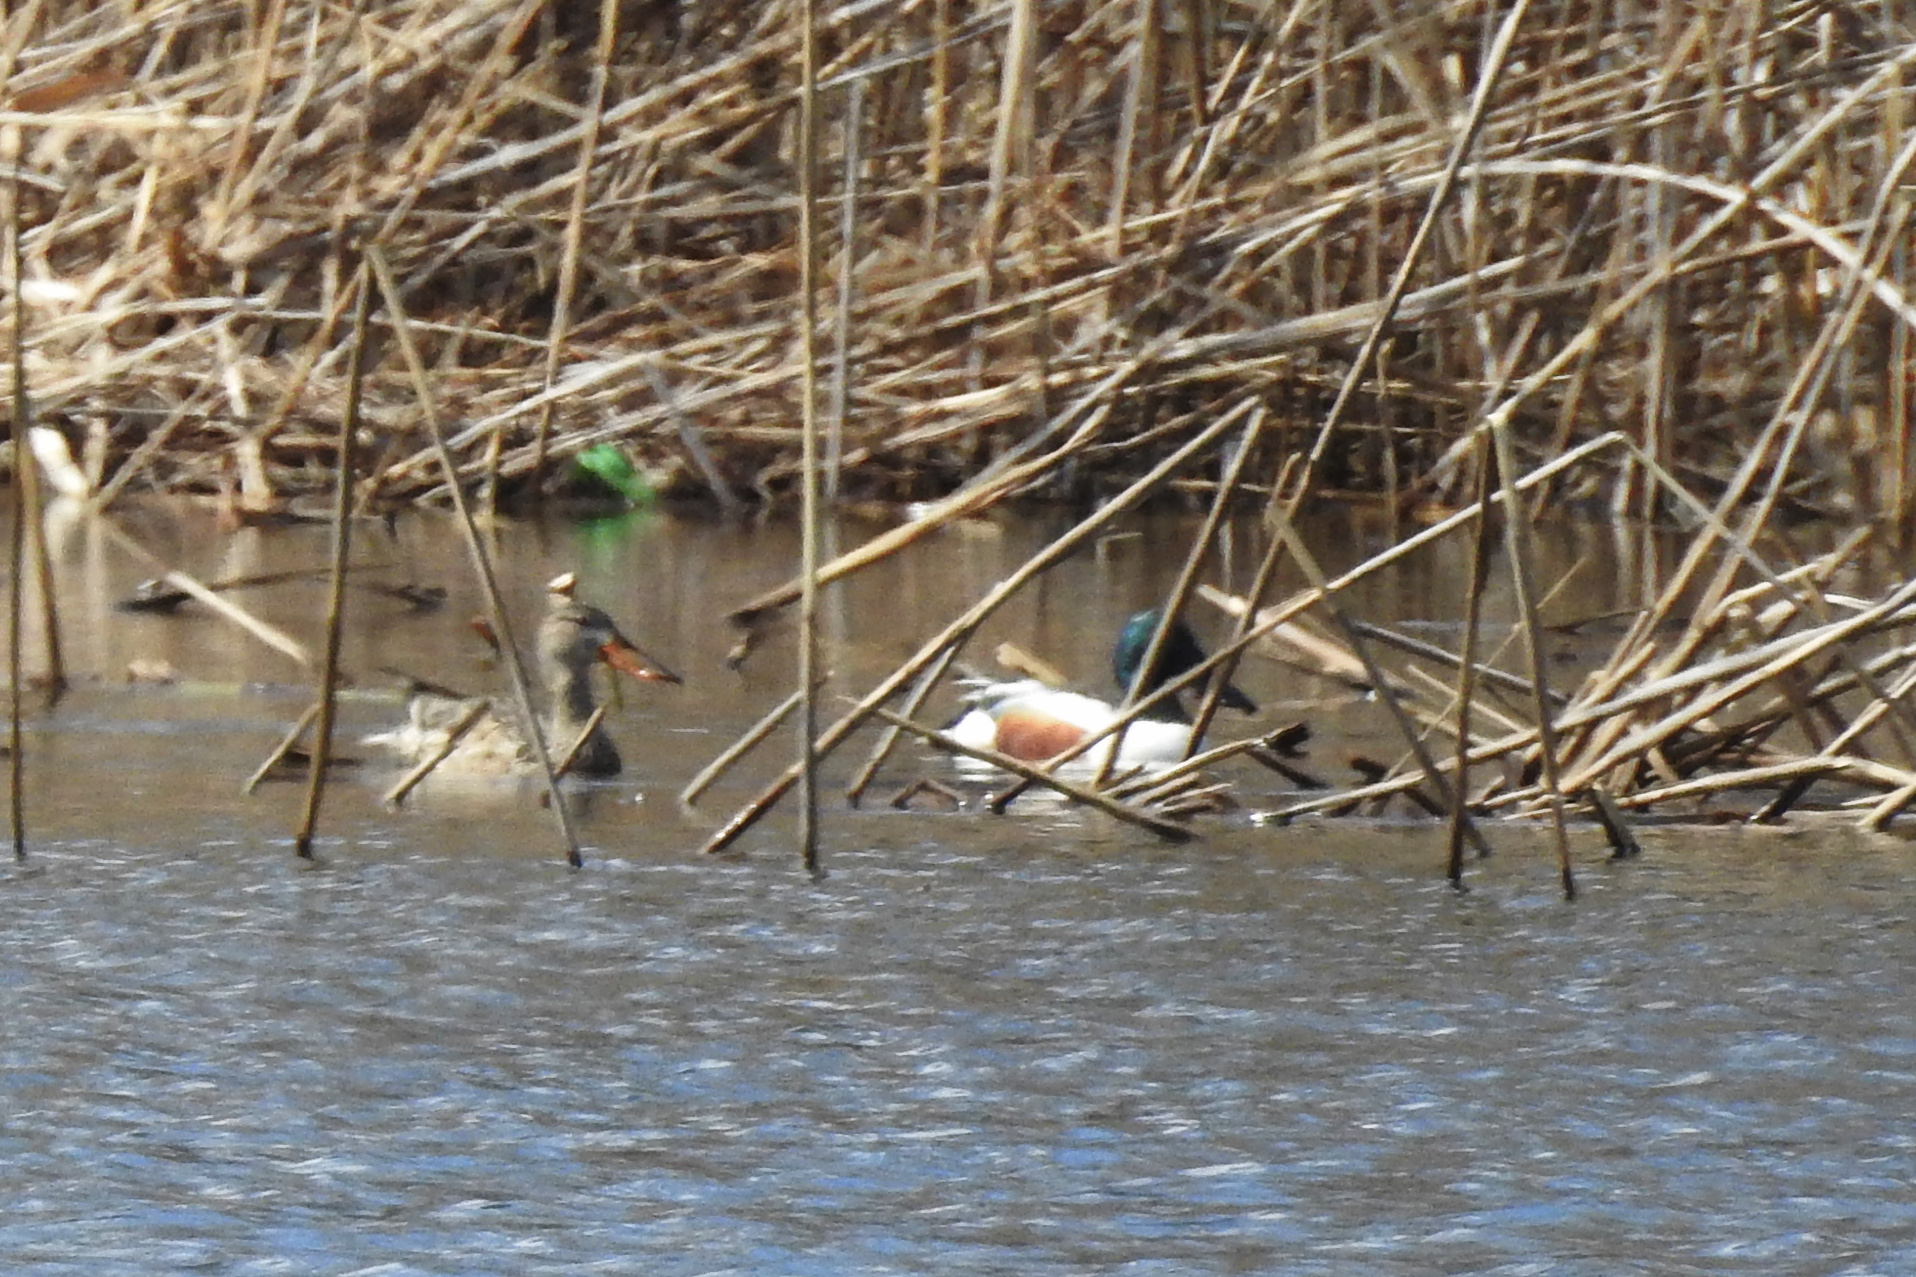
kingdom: Animalia
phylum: Chordata
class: Aves
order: Anseriformes
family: Anatidae
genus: Spatula
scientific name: Spatula clypeata
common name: Northern shoveler
